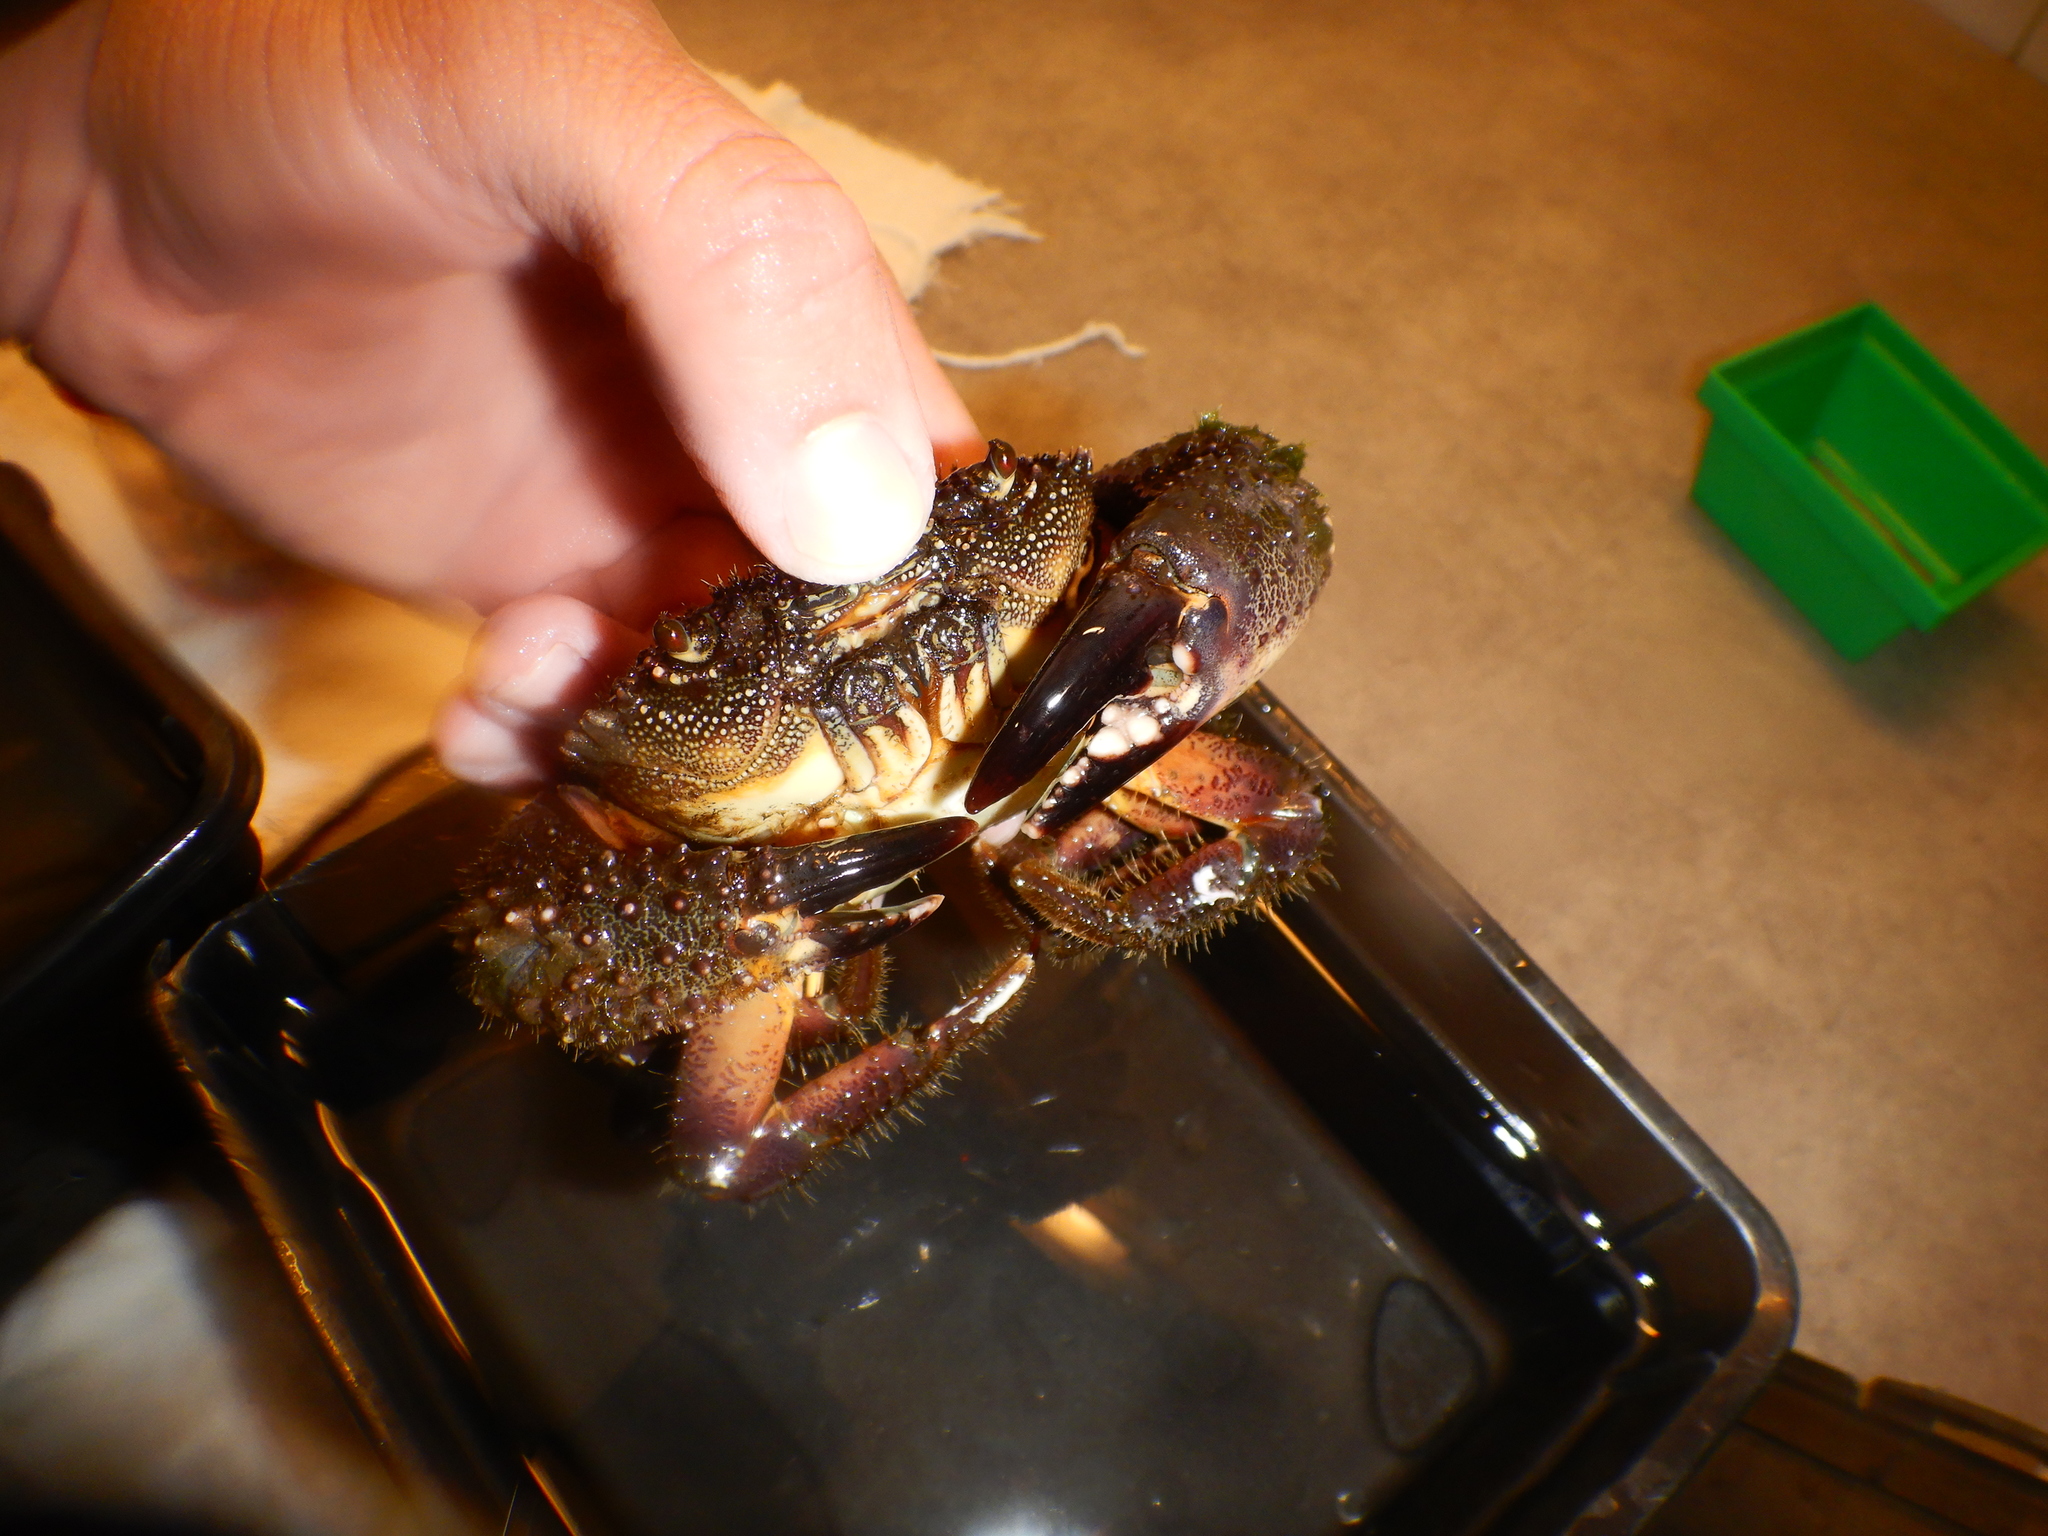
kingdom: Animalia
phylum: Arthropoda
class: Malacostraca
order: Decapoda
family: Eriphiidae
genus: Eriphia
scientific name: Eriphia verrucosa
